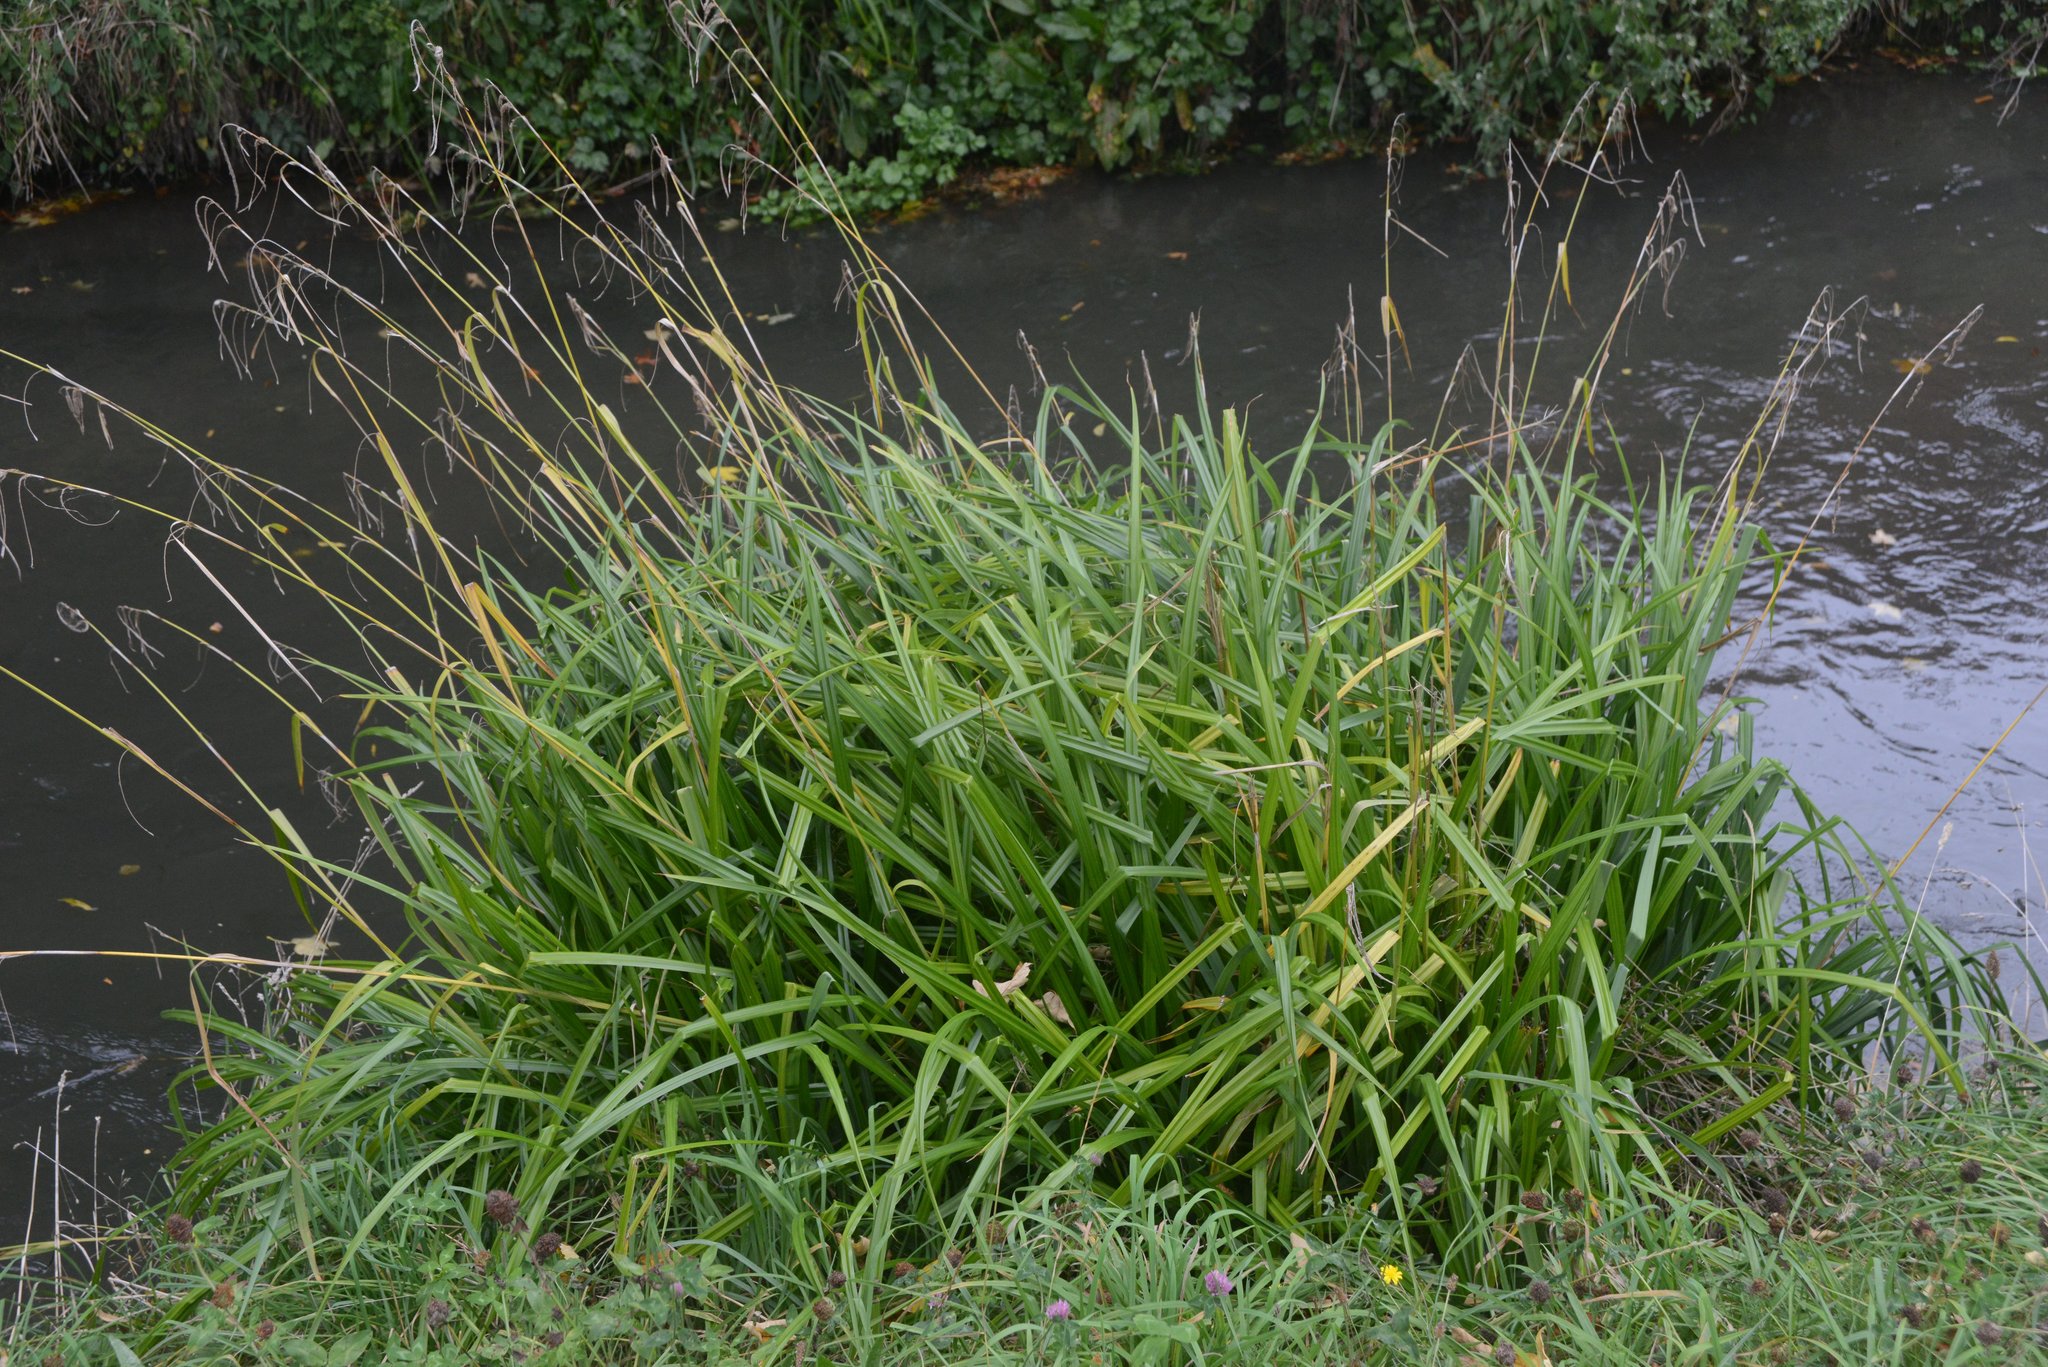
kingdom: Plantae
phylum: Tracheophyta
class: Liliopsida
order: Poales
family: Cyperaceae
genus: Carex
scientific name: Carex pendula
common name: Pendulous sedge
